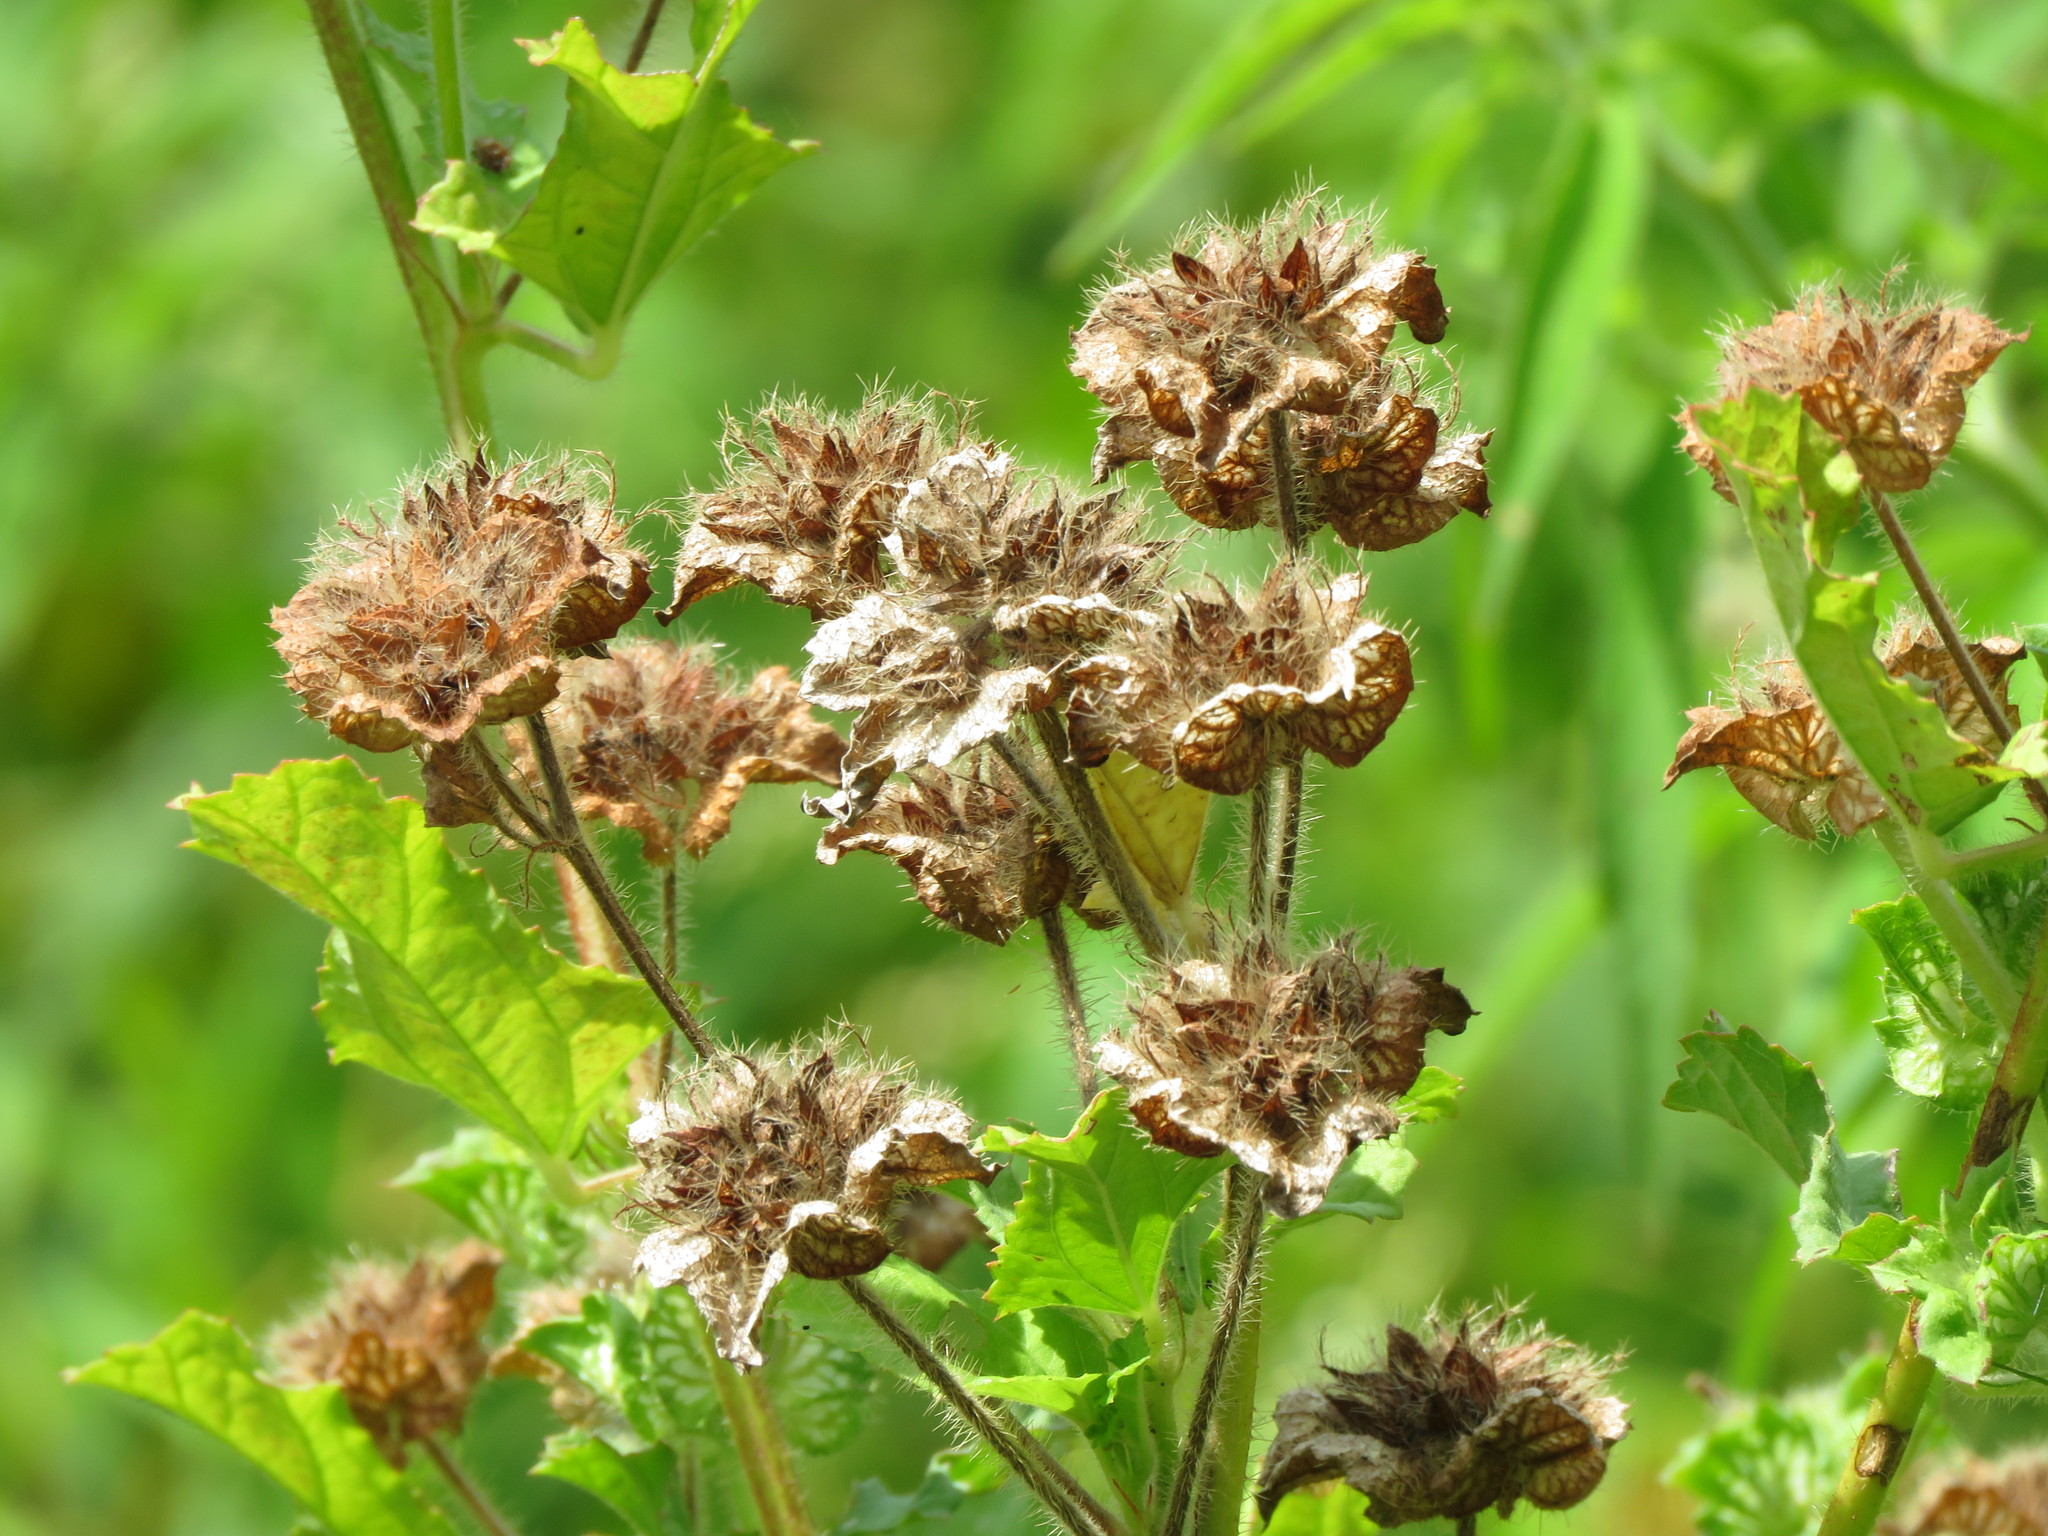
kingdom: Plantae
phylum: Tracheophyta
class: Magnoliopsida
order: Malvales
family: Malvaceae
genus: Malachra
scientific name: Malachra capitata
